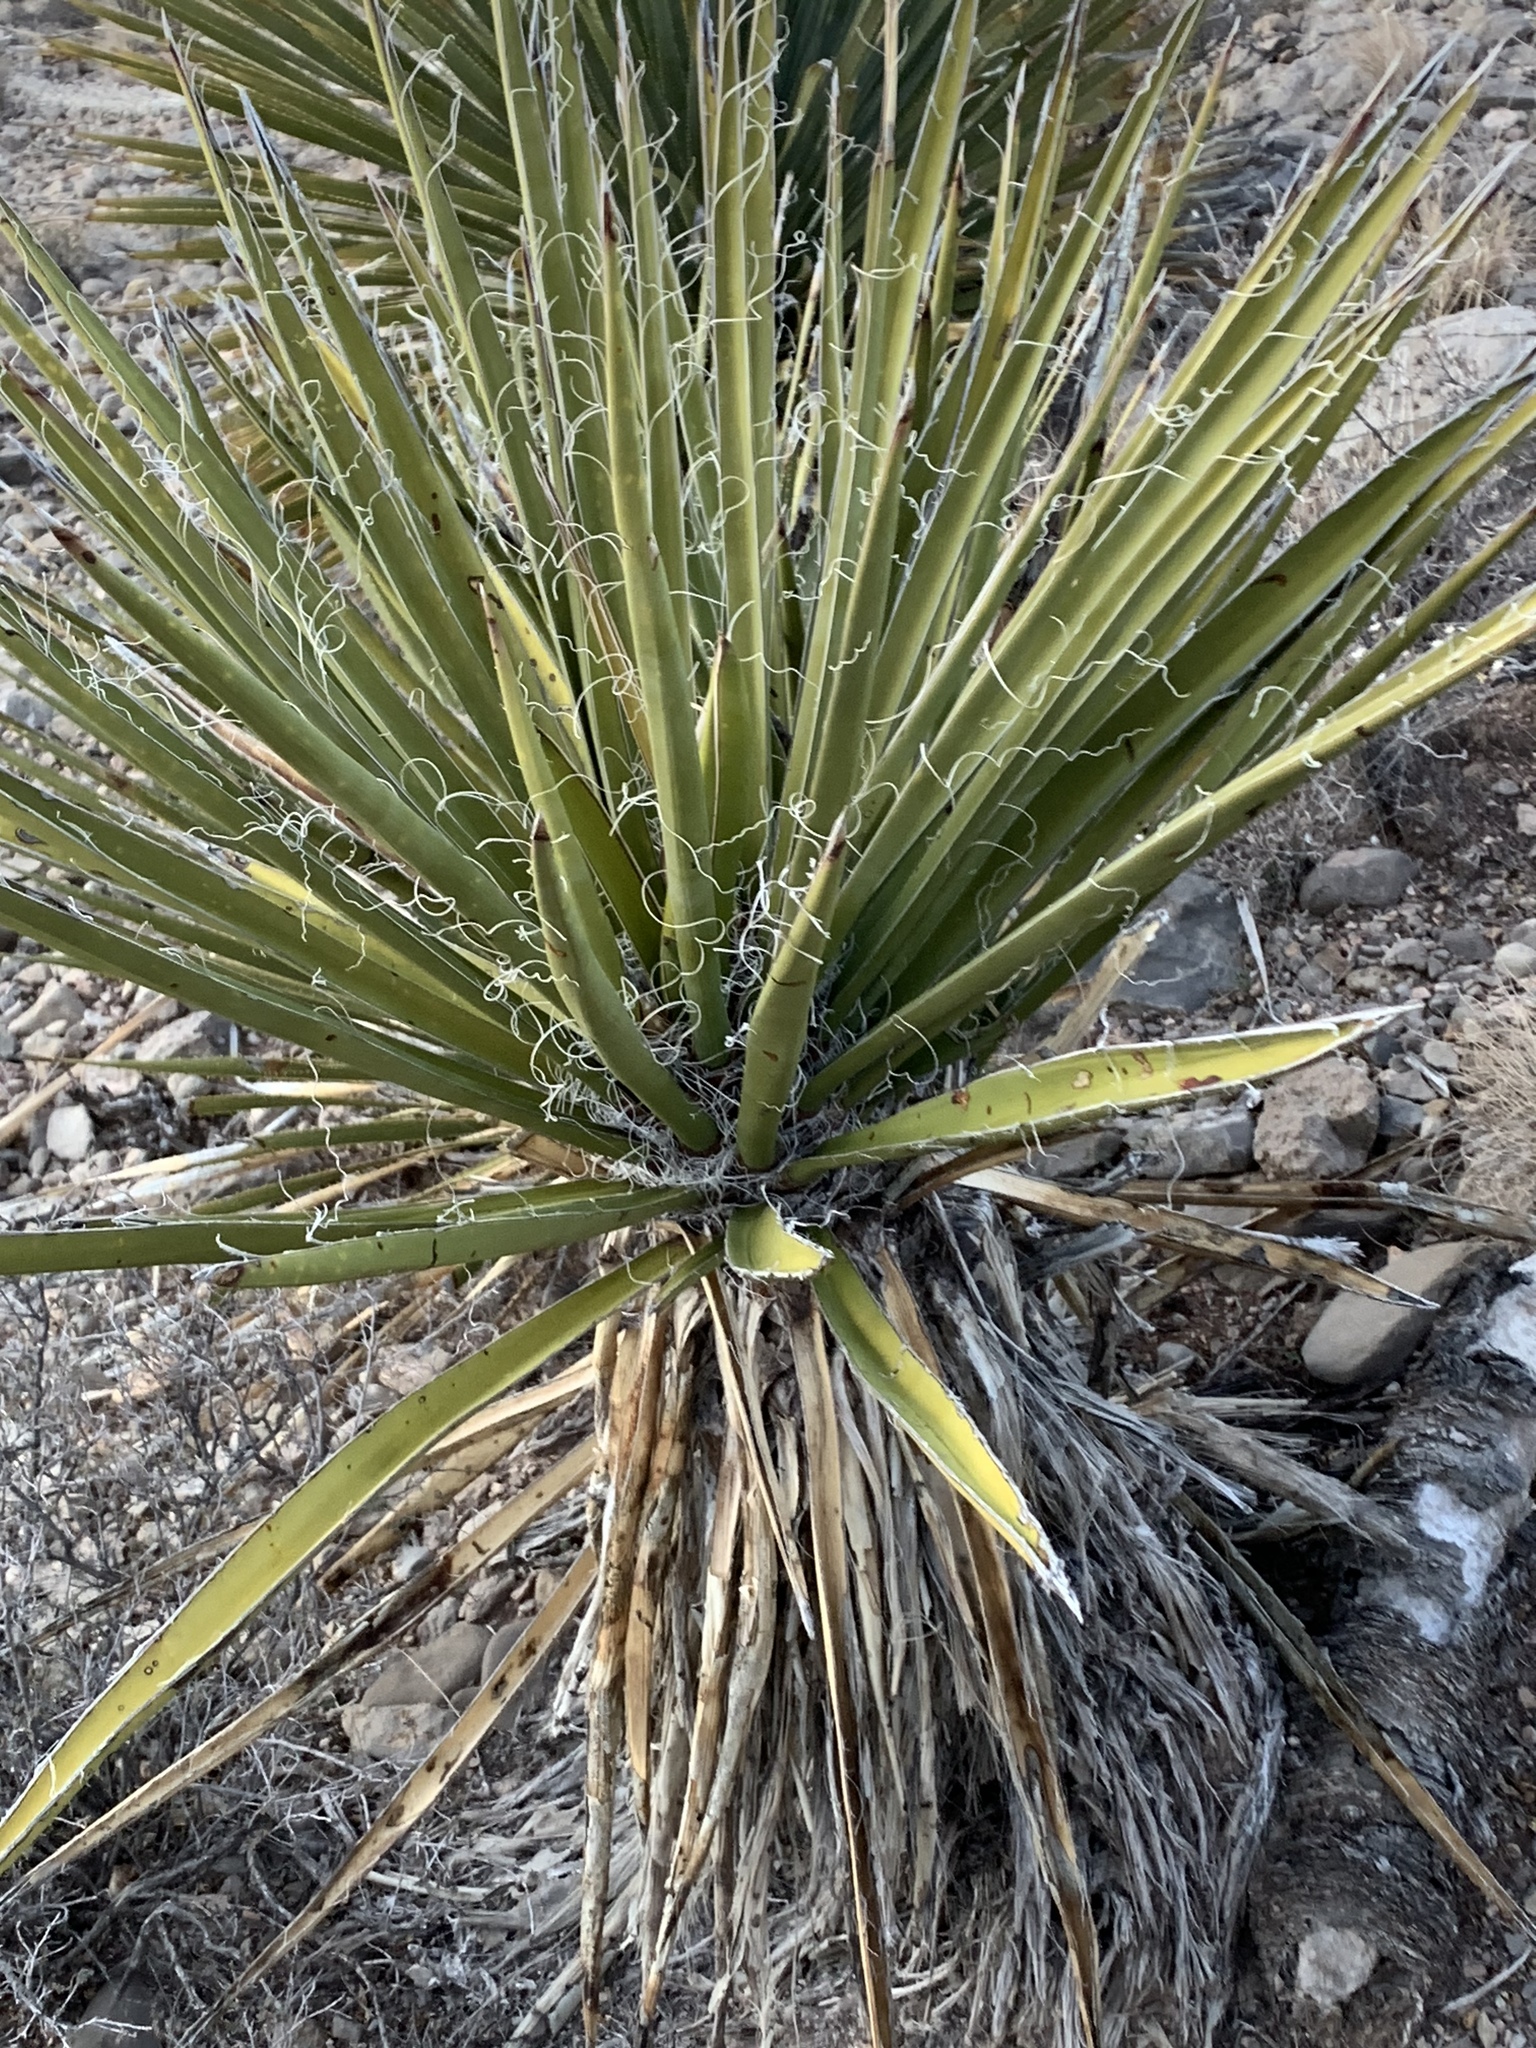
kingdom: Plantae
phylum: Tracheophyta
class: Liliopsida
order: Asparagales
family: Asparagaceae
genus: Yucca
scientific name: Yucca treculiana
